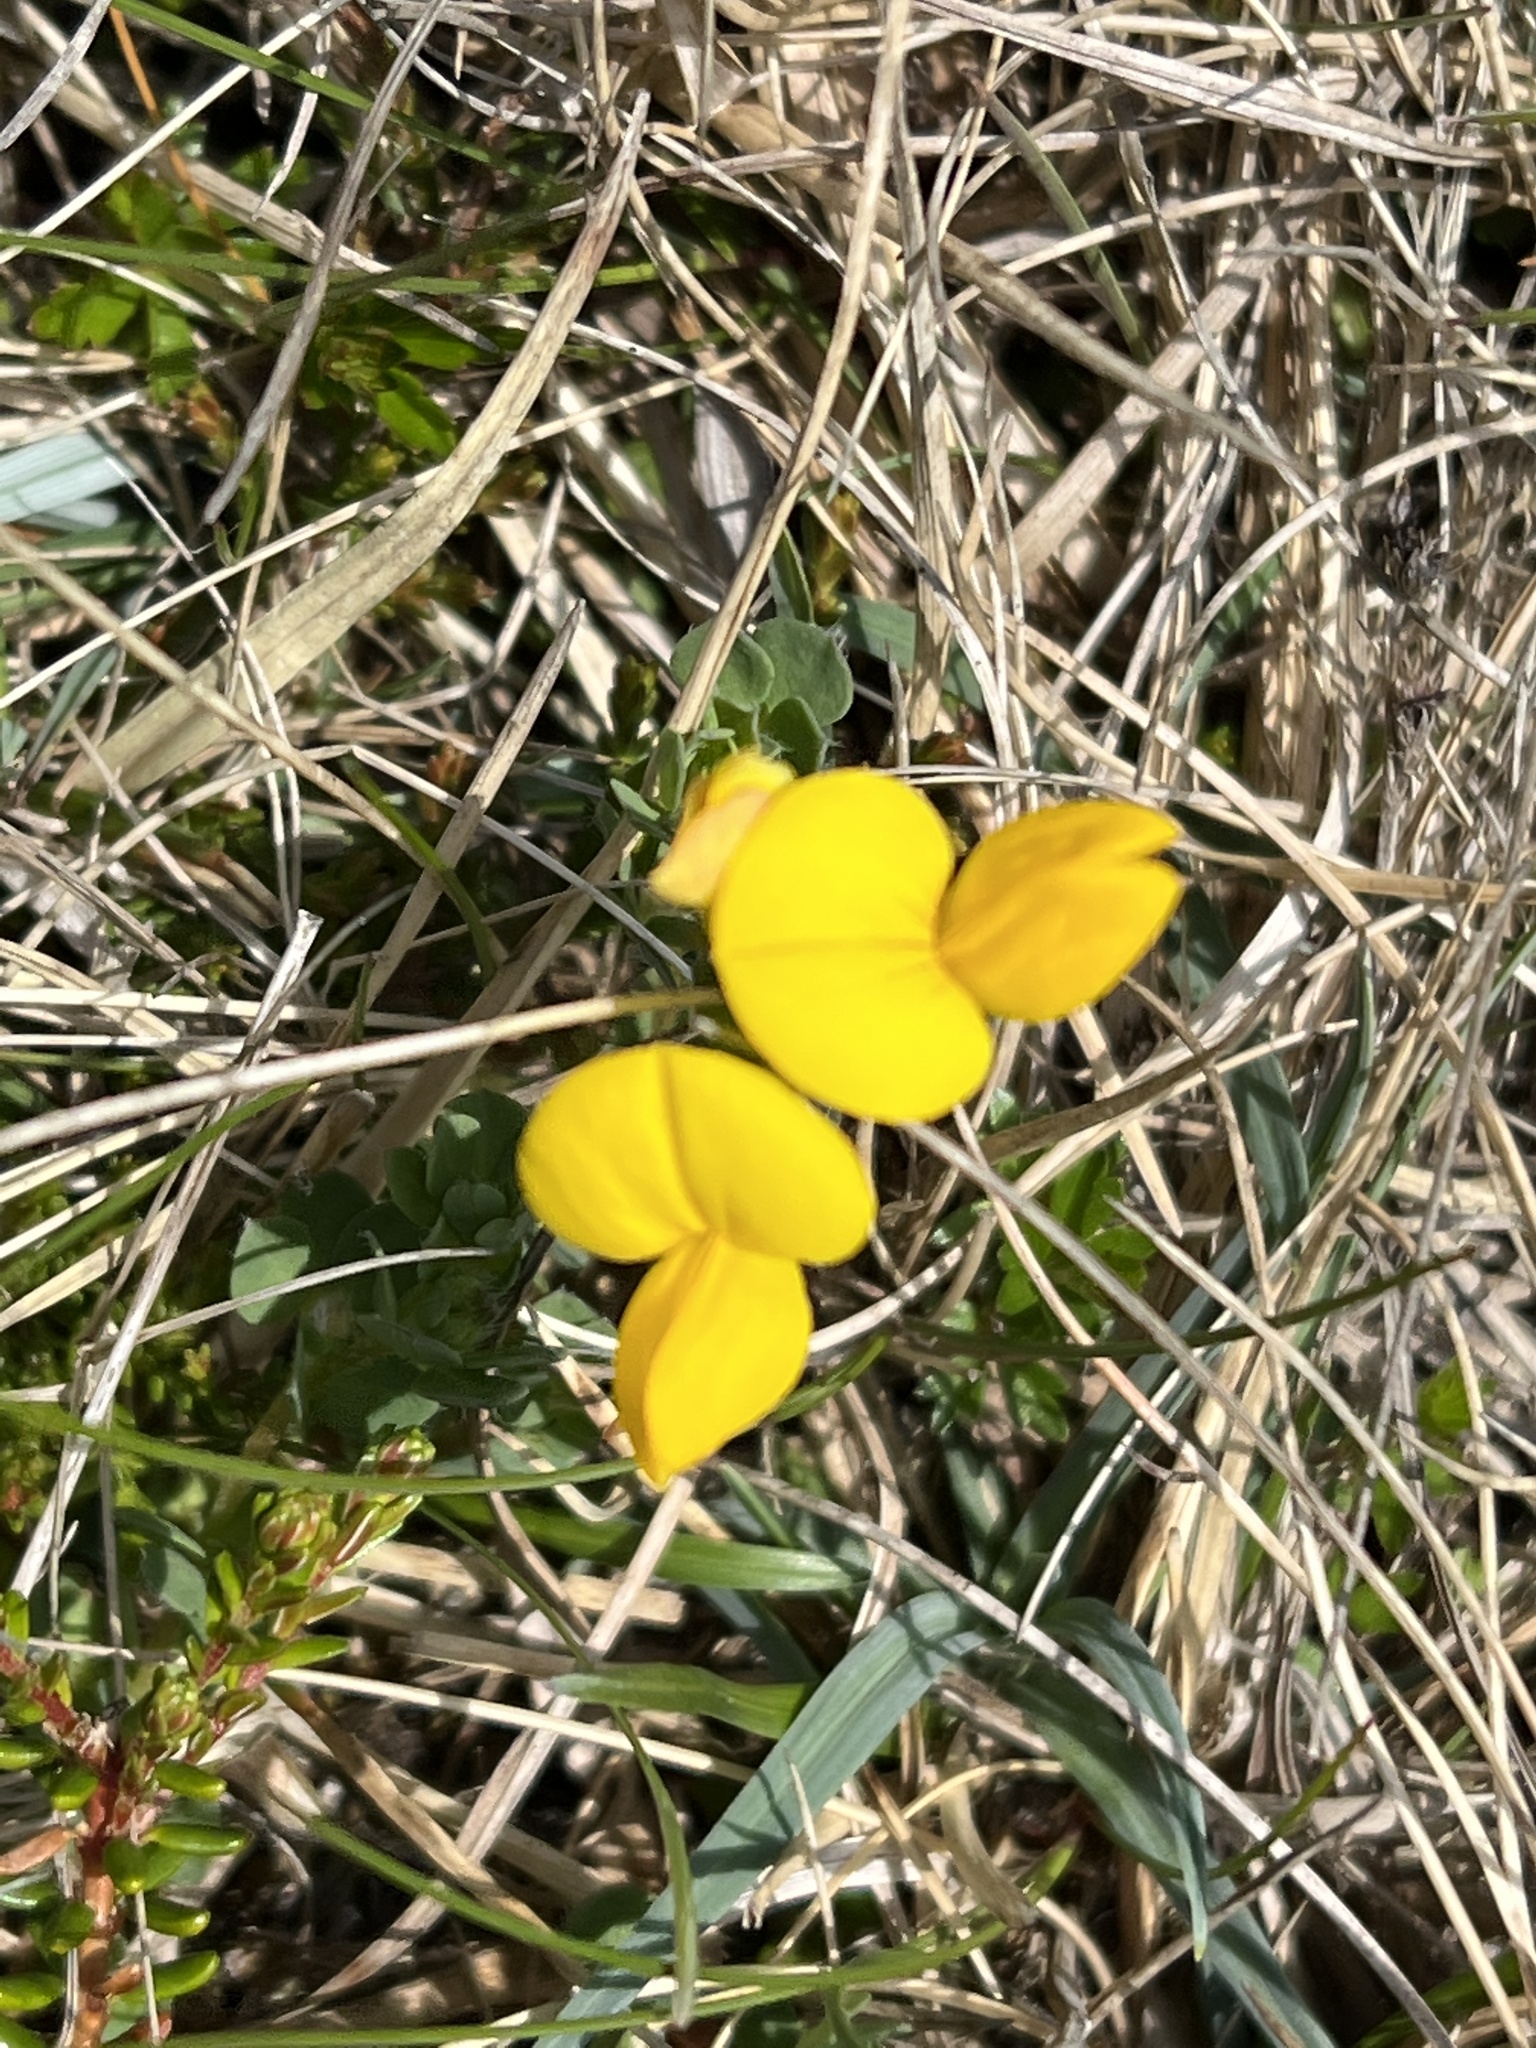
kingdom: Plantae
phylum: Tracheophyta
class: Magnoliopsida
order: Fabales
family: Fabaceae
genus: Lotus
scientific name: Lotus corniculatus
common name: Common bird's-foot-trefoil
